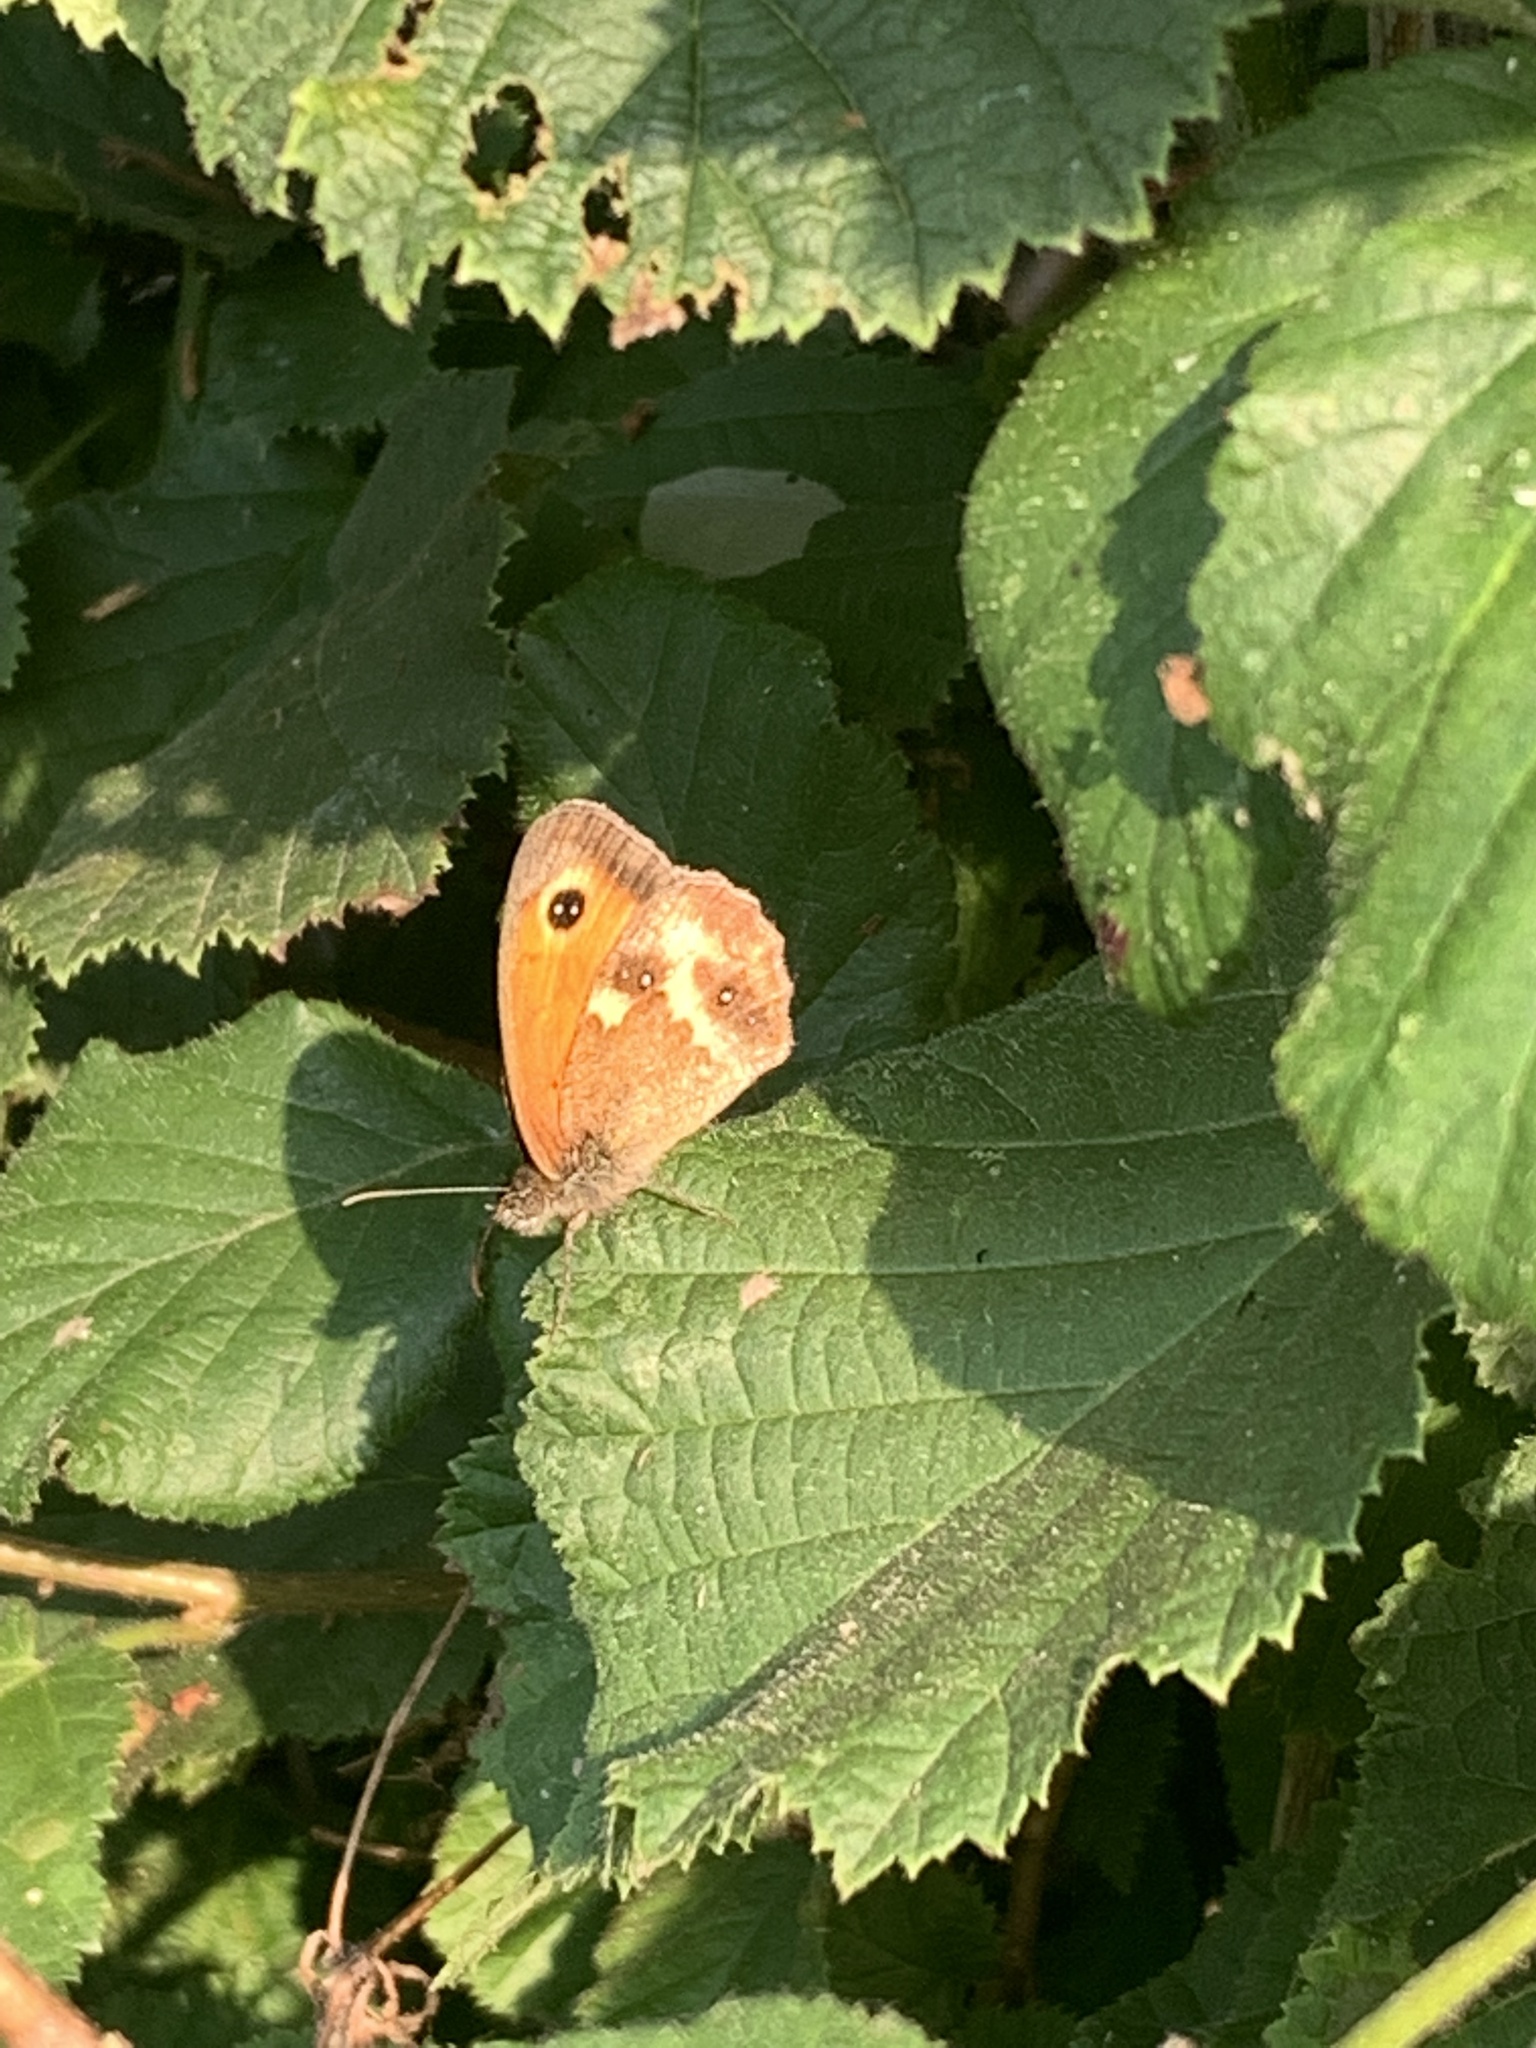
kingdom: Animalia
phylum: Arthropoda
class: Insecta
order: Lepidoptera
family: Nymphalidae
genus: Pyronia
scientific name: Pyronia tithonus
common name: Gatekeeper
